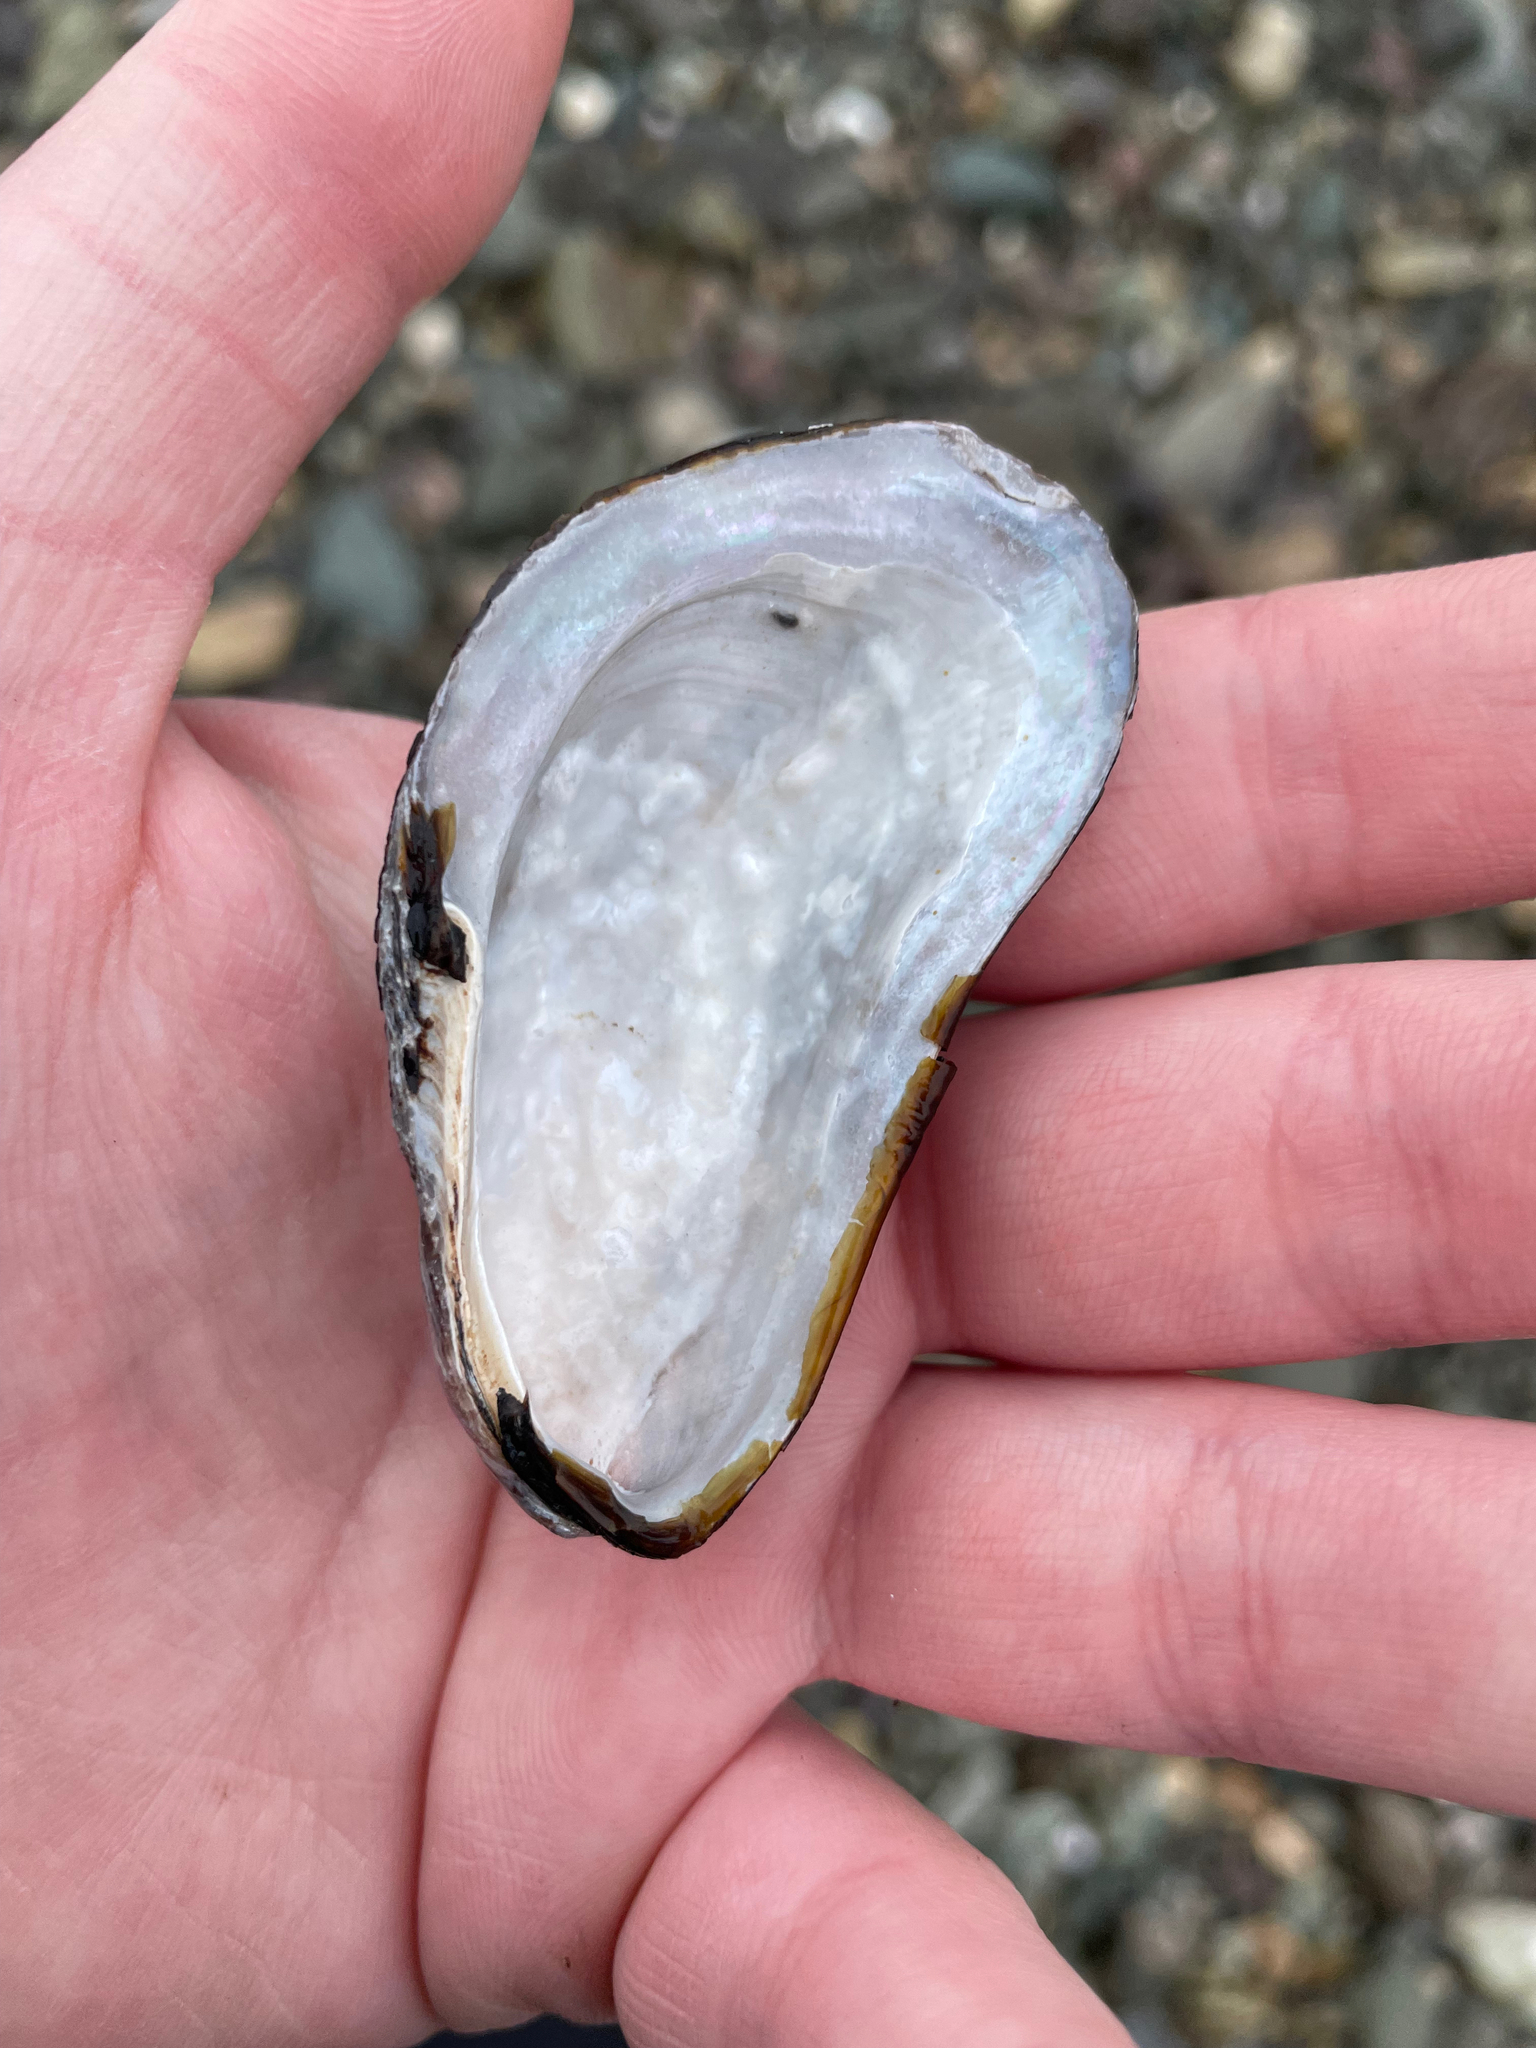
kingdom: Animalia
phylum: Mollusca
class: Bivalvia
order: Mytilida
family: Mytilidae
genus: Modiolus
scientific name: Modiolus modiolus
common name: Horse-mussel
